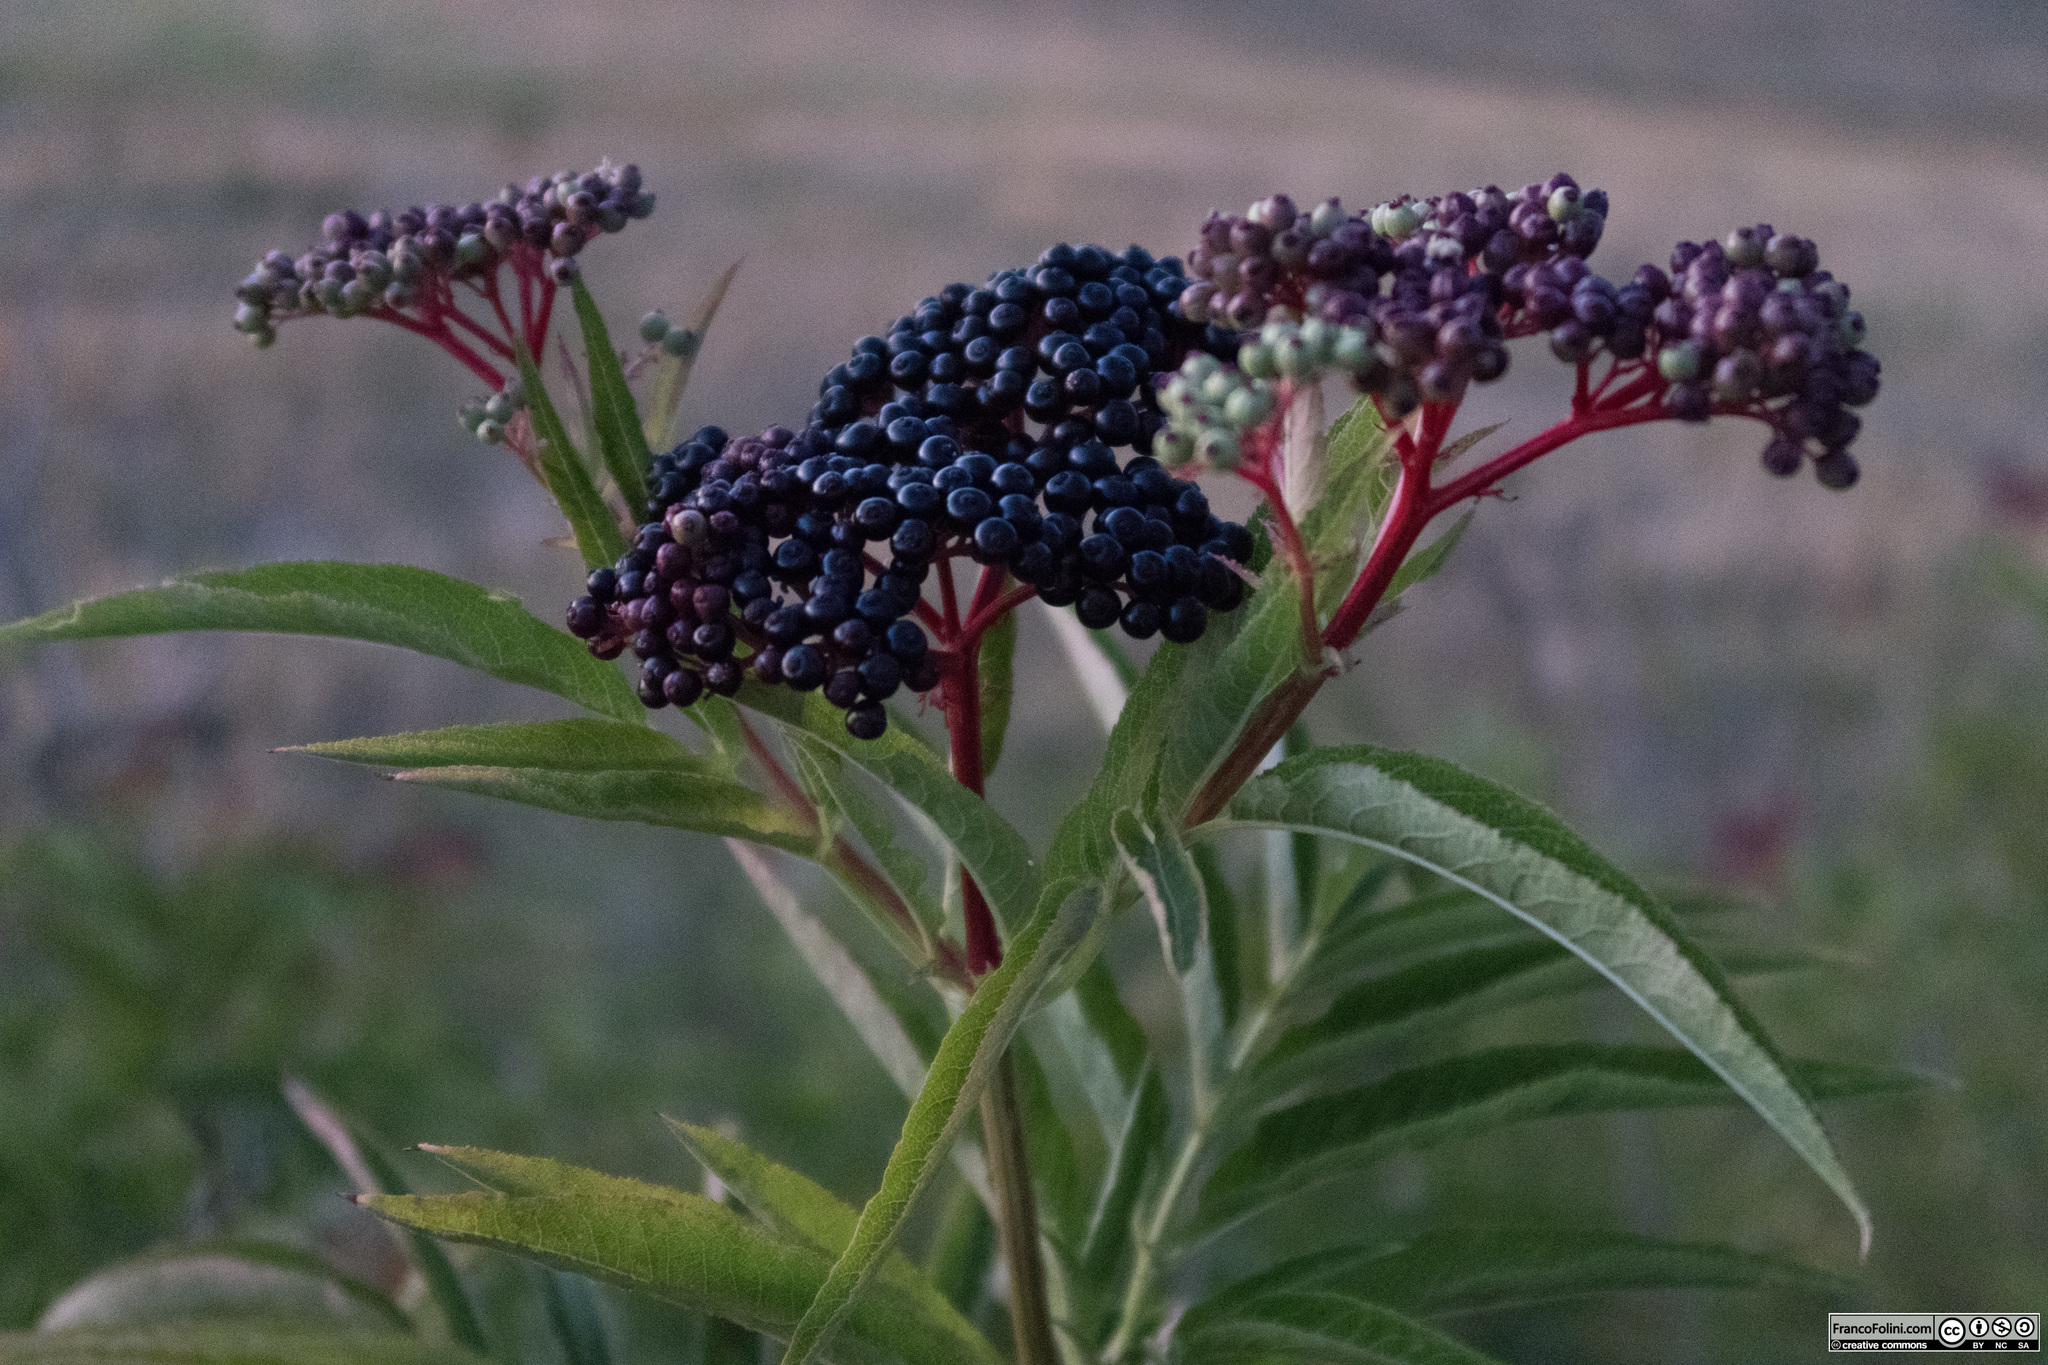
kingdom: Plantae
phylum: Tracheophyta
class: Magnoliopsida
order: Dipsacales
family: Viburnaceae
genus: Sambucus
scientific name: Sambucus ebulus
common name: Dwarf elder
